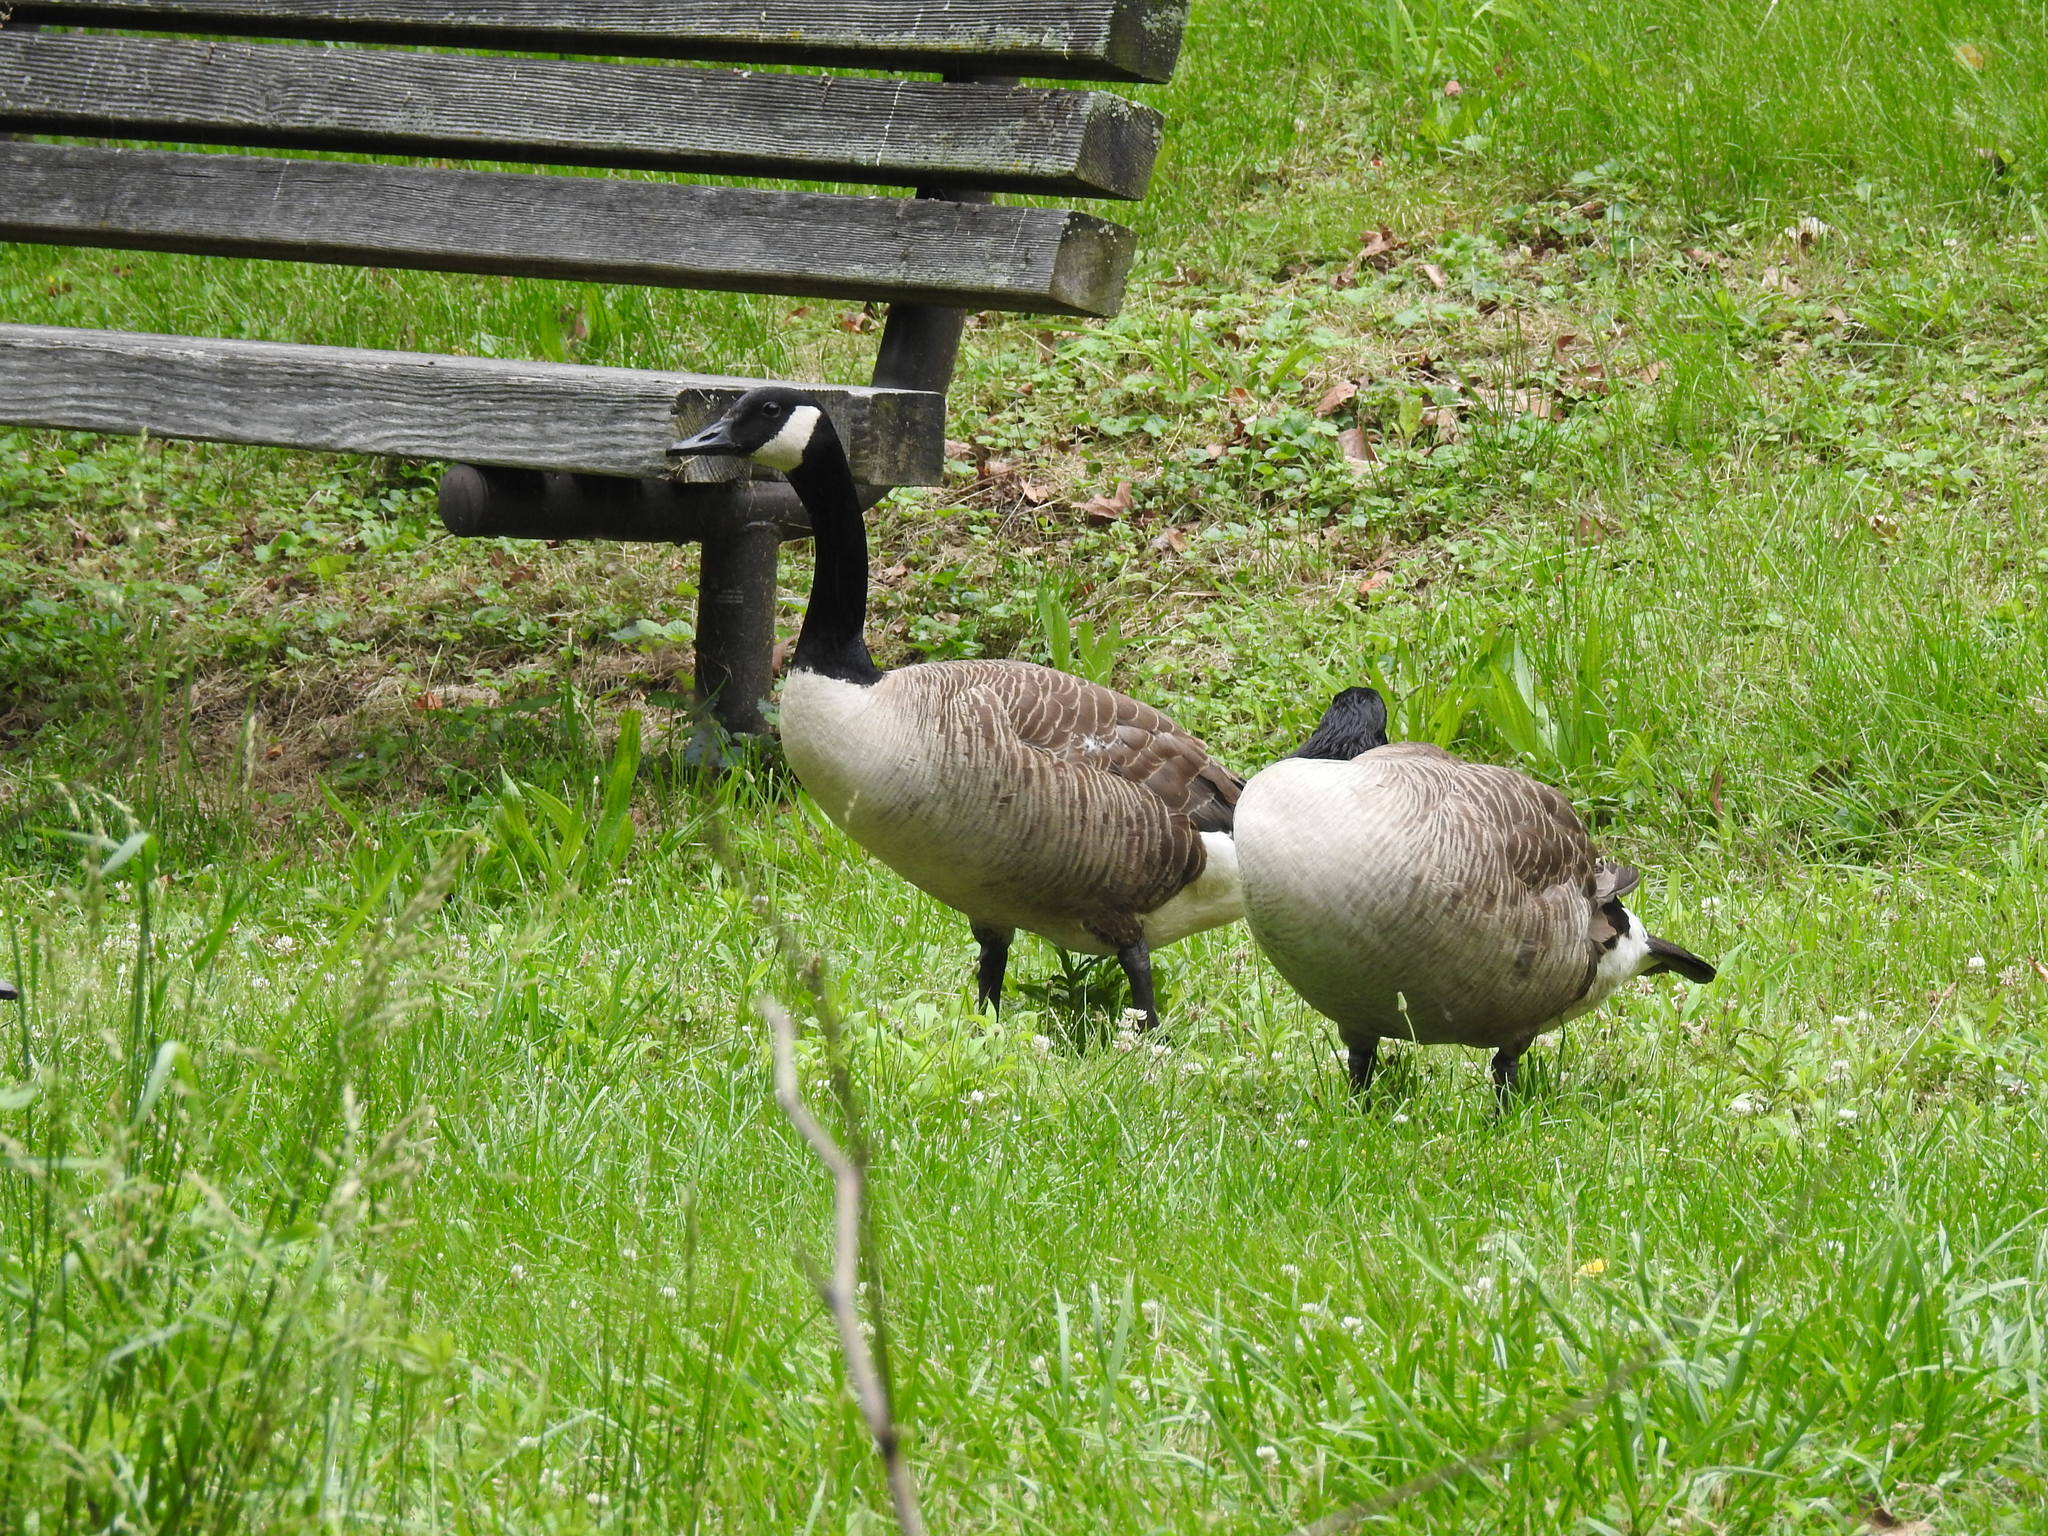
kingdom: Animalia
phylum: Chordata
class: Aves
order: Anseriformes
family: Anatidae
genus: Branta
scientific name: Branta canadensis
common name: Canada goose
